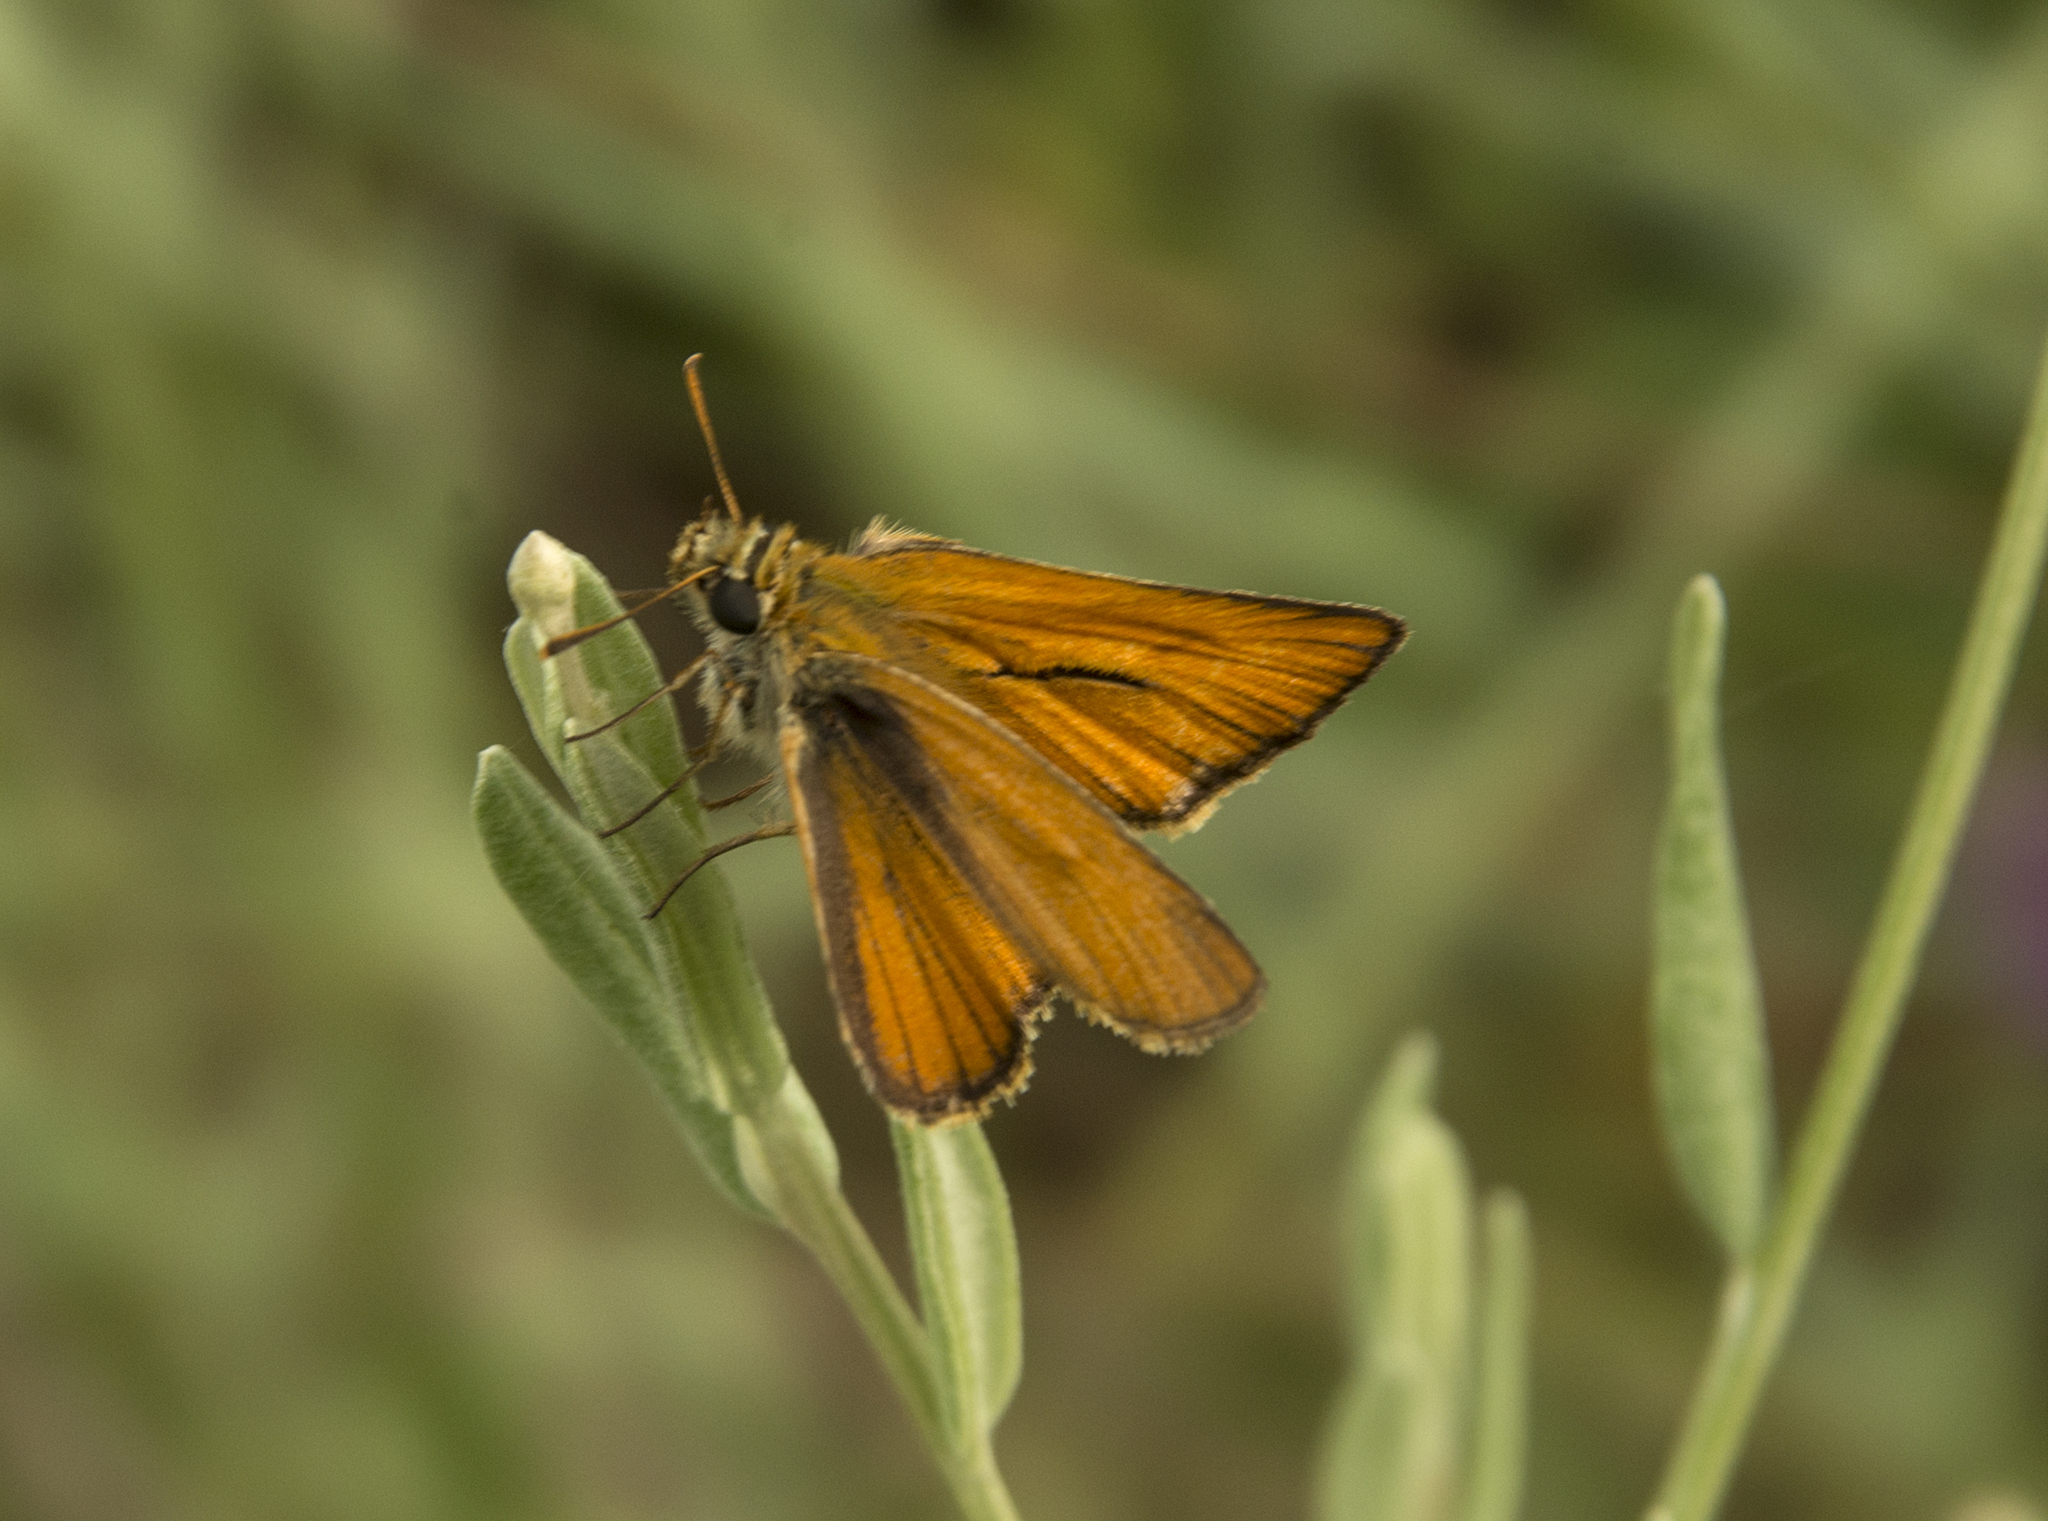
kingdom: Animalia
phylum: Arthropoda
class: Insecta
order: Lepidoptera
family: Hesperiidae
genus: Thymelicus
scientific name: Thymelicus sylvestris
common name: Small skipper
